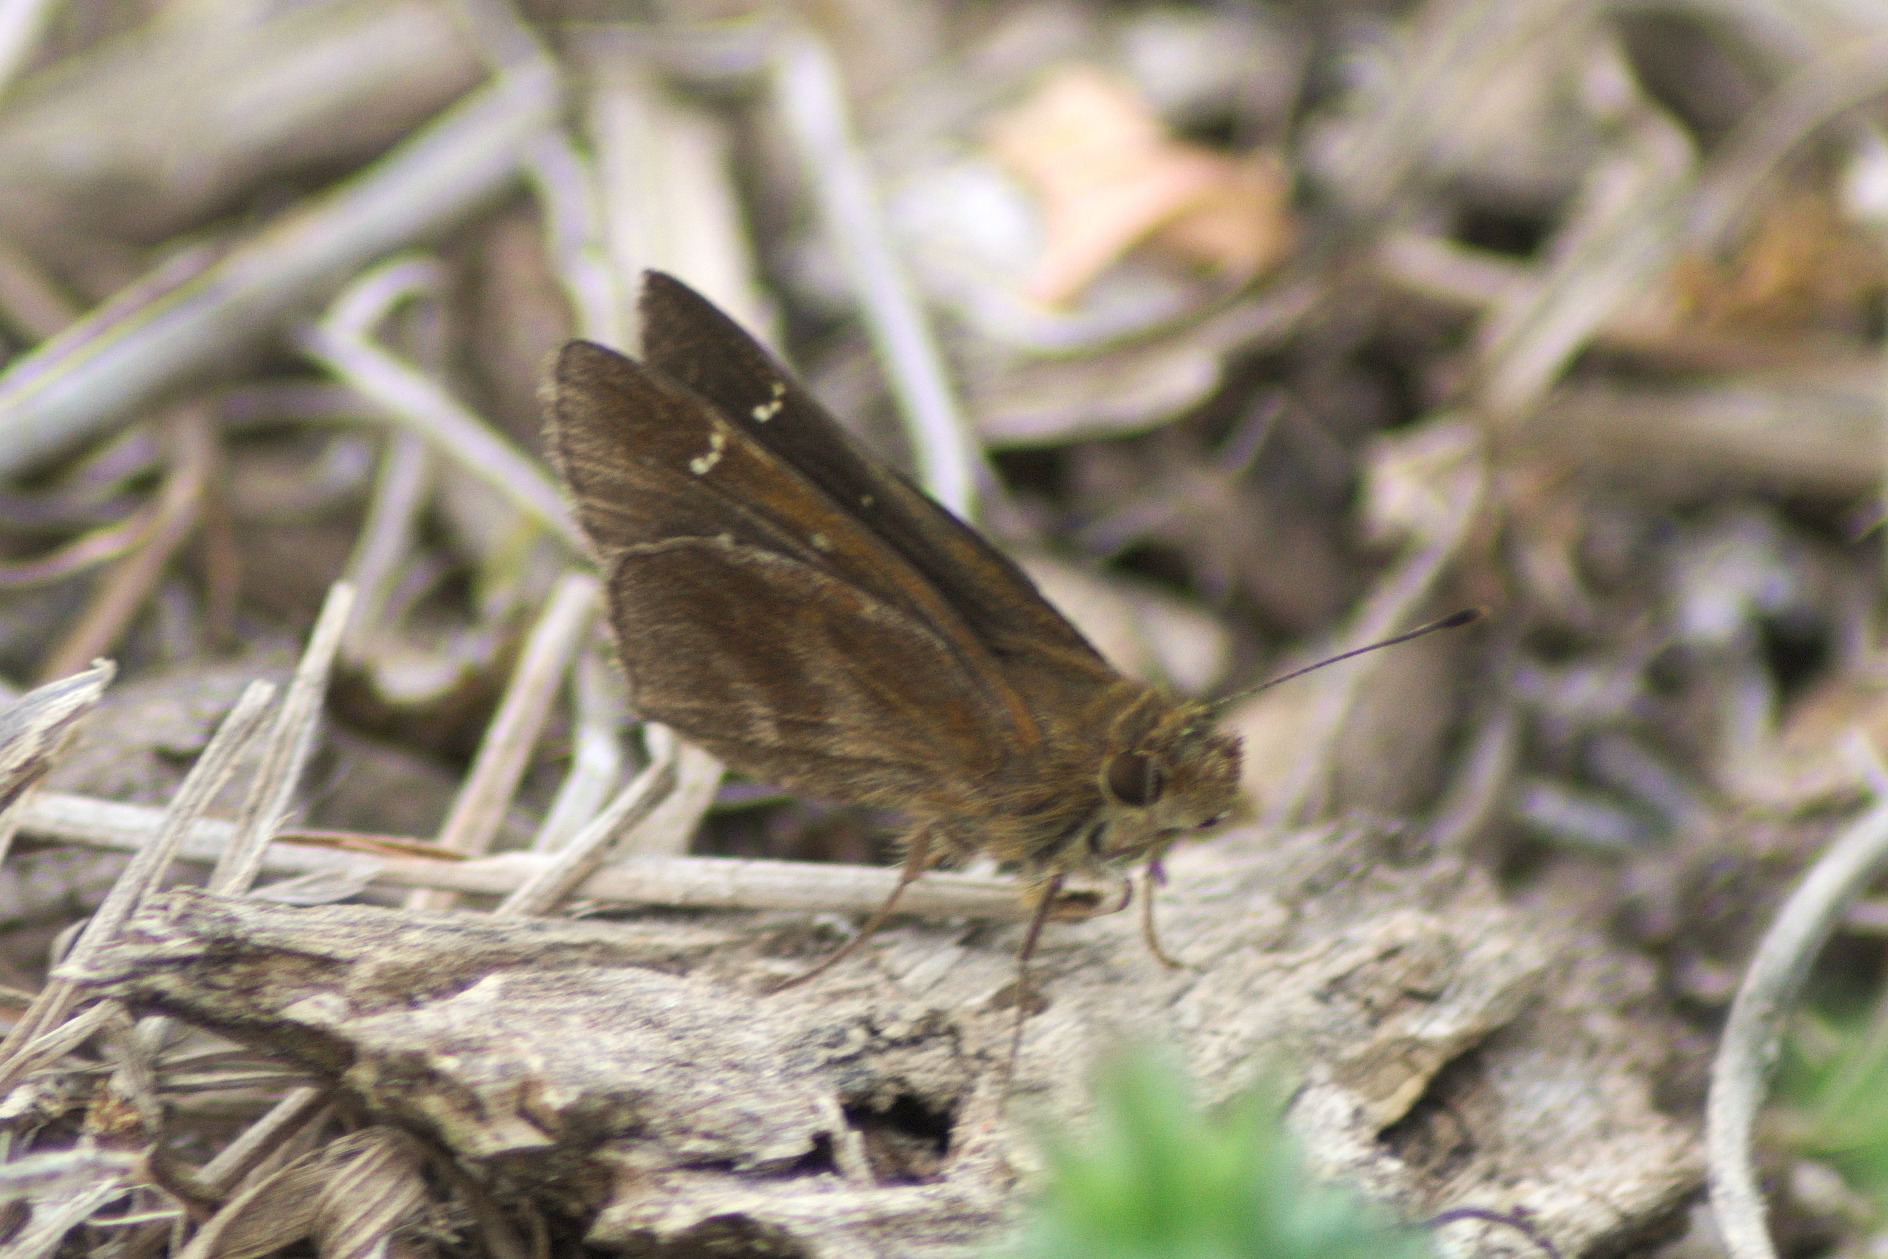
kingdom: Animalia
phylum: Arthropoda
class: Insecta
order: Lepidoptera
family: Hesperiidae
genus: Lerema
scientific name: Lerema accius
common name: Clouded skipper
